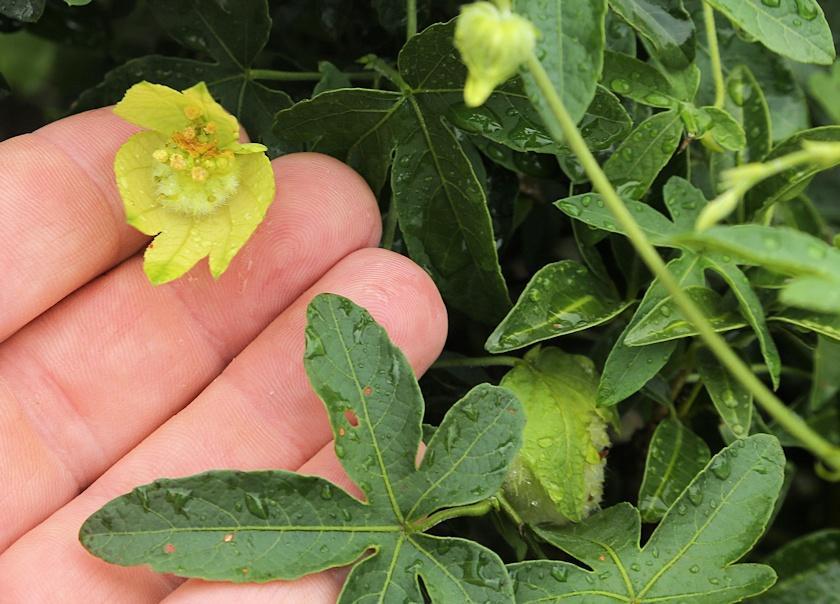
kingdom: Plantae
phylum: Tracheophyta
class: Magnoliopsida
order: Malpighiales
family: Euphorbiaceae
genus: Dalechampia
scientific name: Dalechampia capensis
